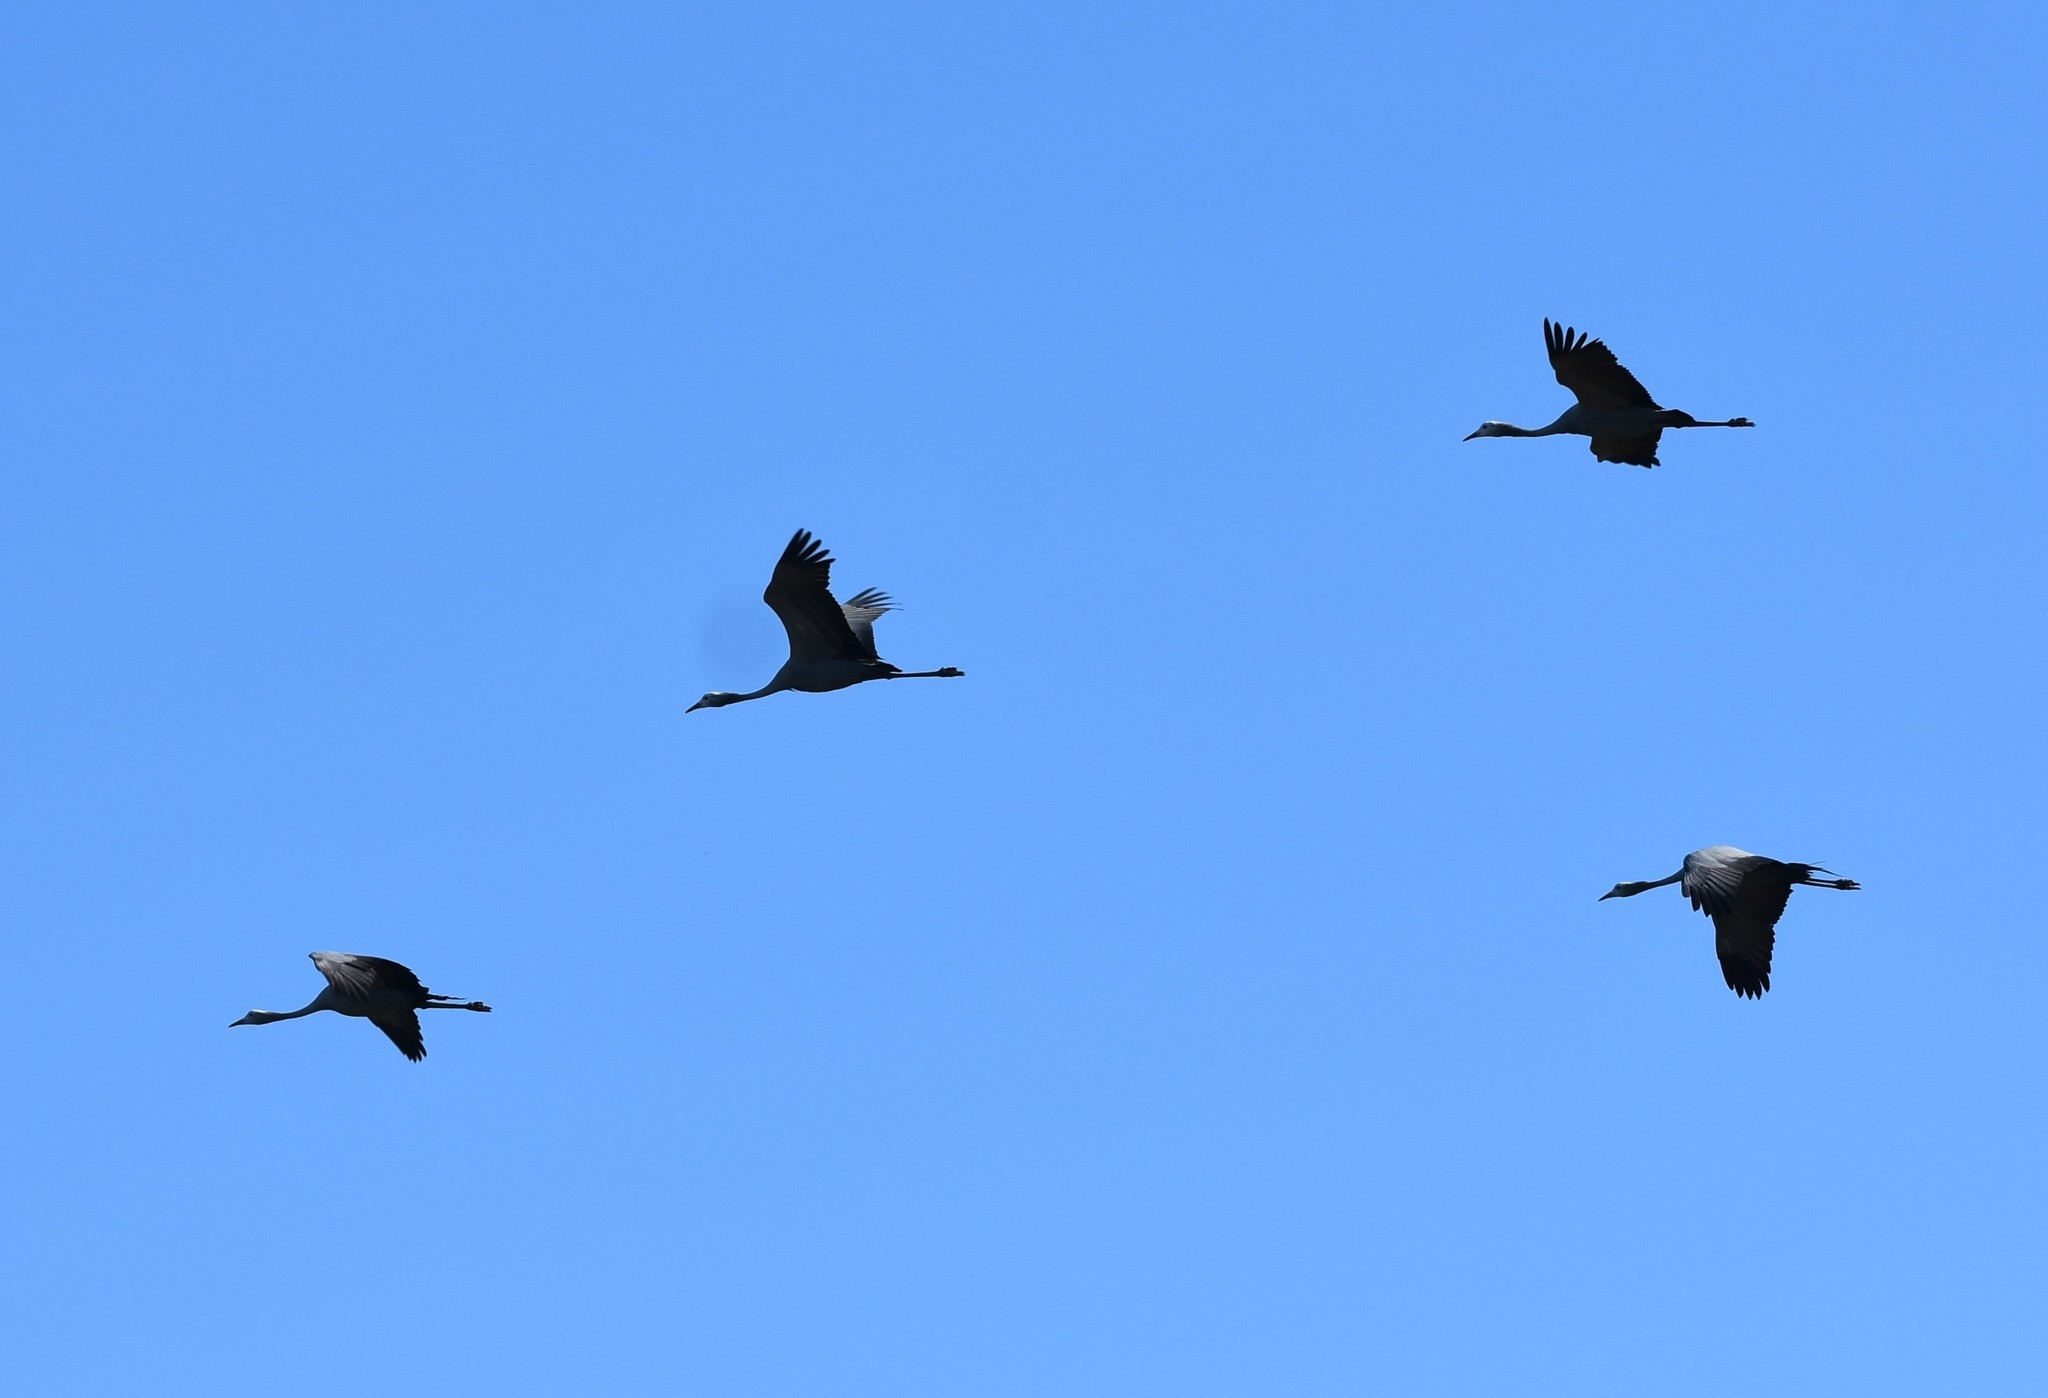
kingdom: Animalia
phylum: Chordata
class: Aves
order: Gruiformes
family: Gruidae
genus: Anthropoides
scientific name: Anthropoides paradiseus
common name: Blue crane
